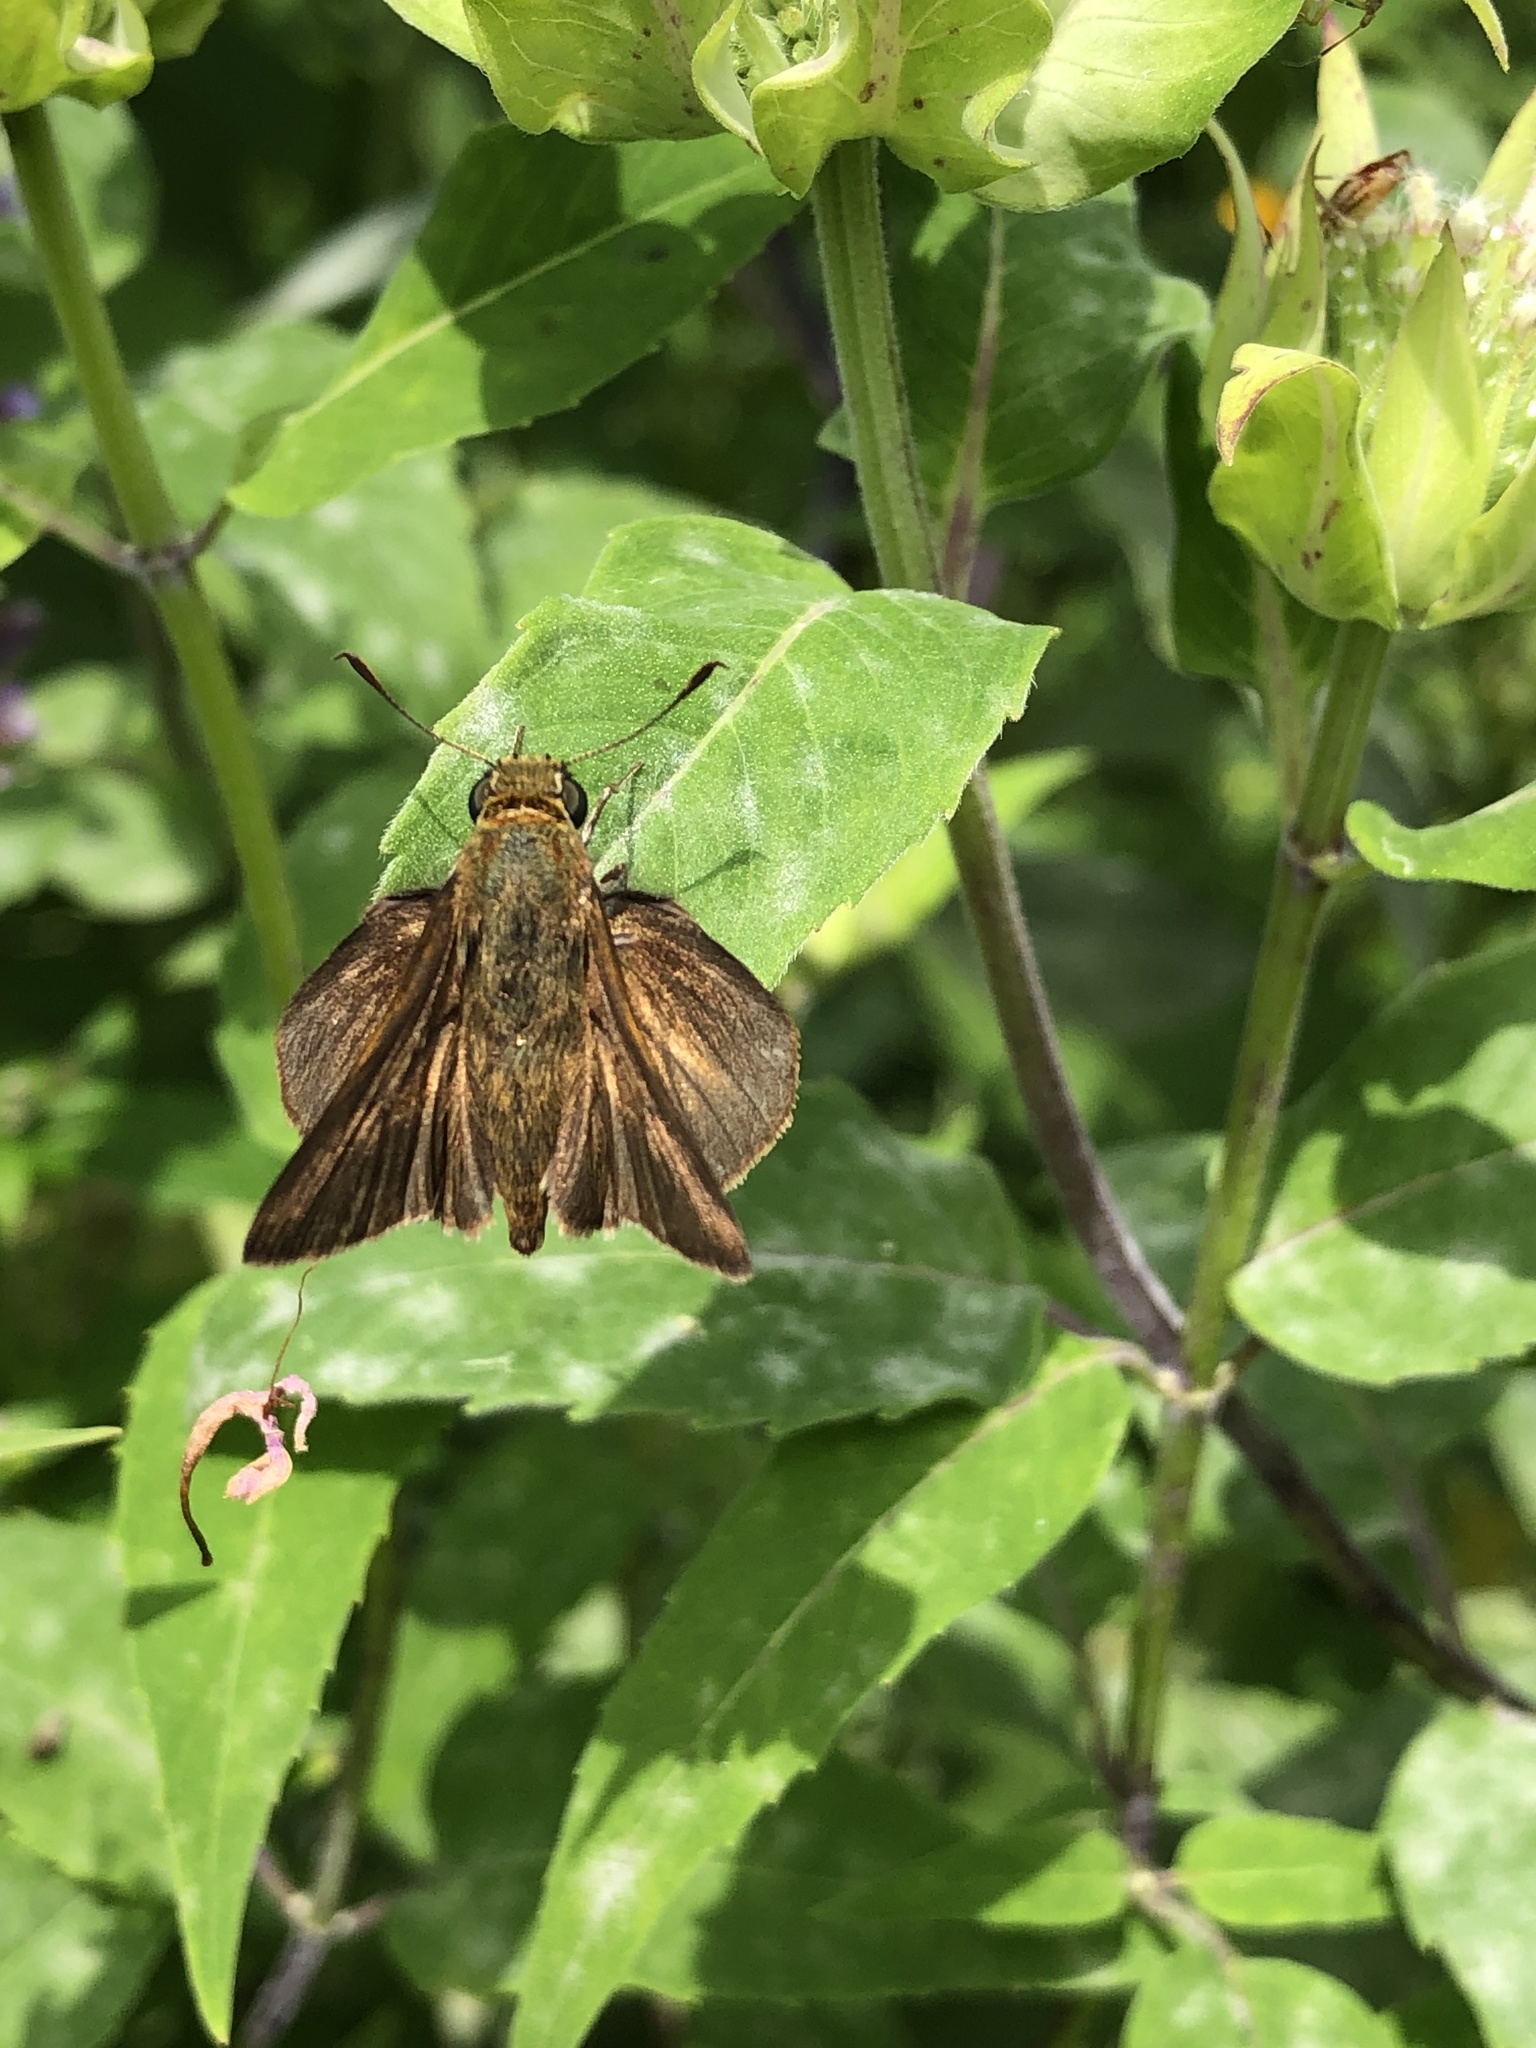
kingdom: Animalia
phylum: Arthropoda
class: Insecta
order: Lepidoptera
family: Hesperiidae
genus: Euphyes
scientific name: Euphyes vestris
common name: Dun skipper
